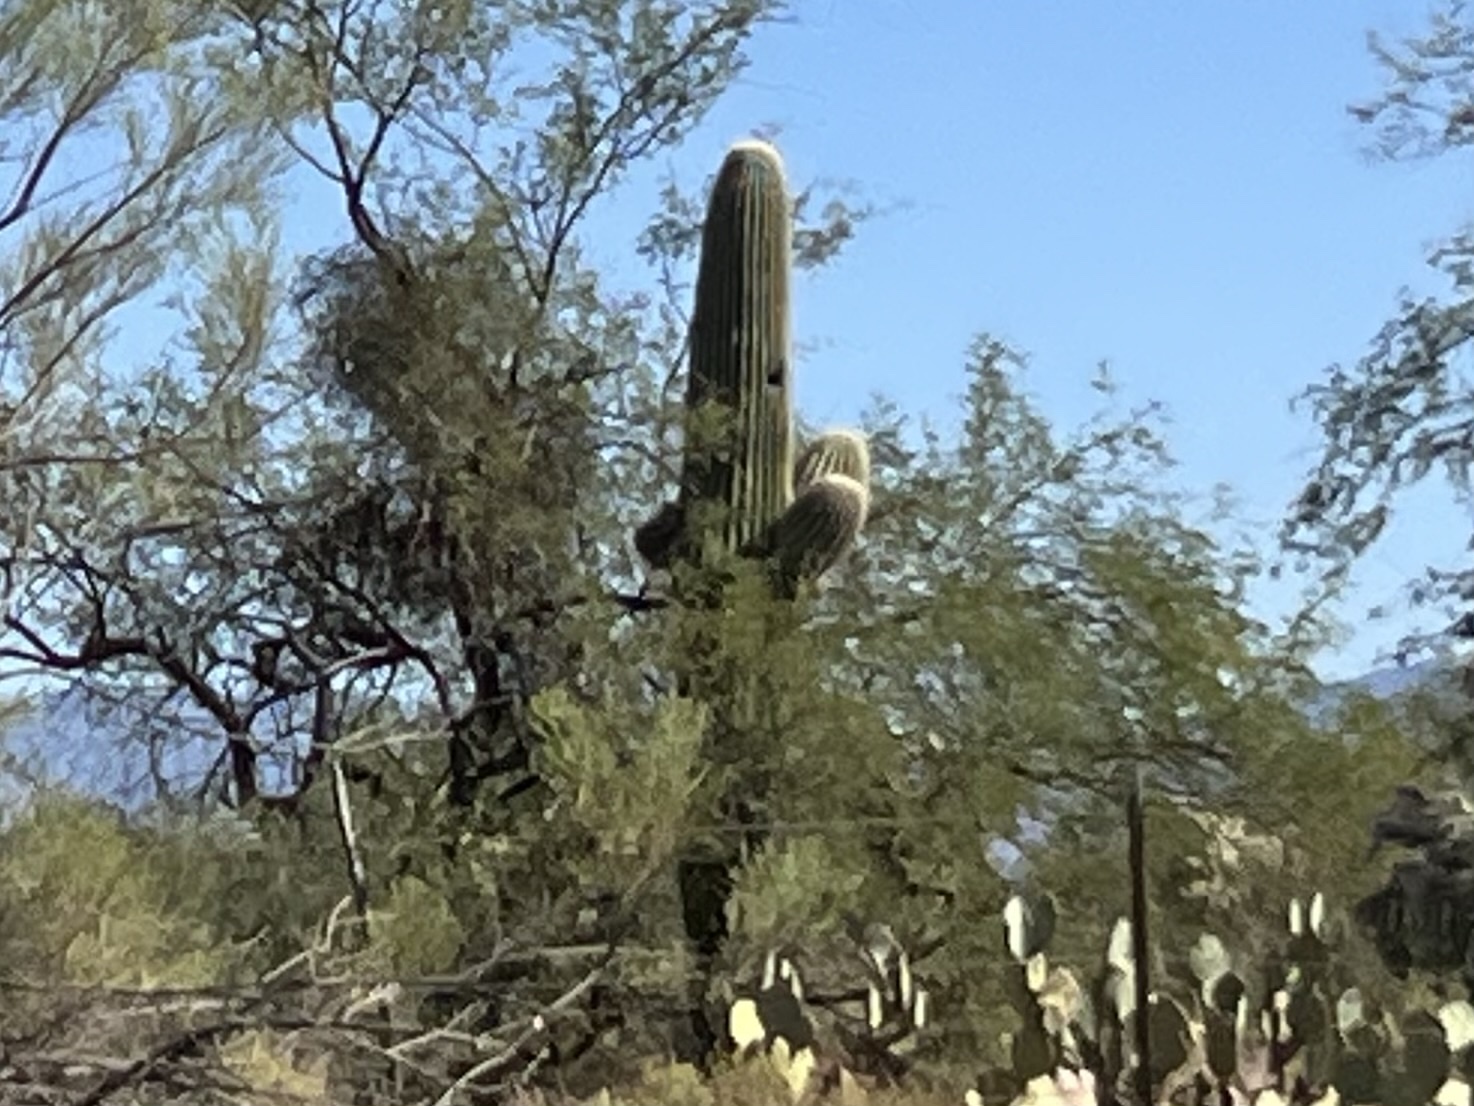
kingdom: Plantae
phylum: Tracheophyta
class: Magnoliopsida
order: Caryophyllales
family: Cactaceae
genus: Carnegiea
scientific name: Carnegiea gigantea
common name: Saguaro
